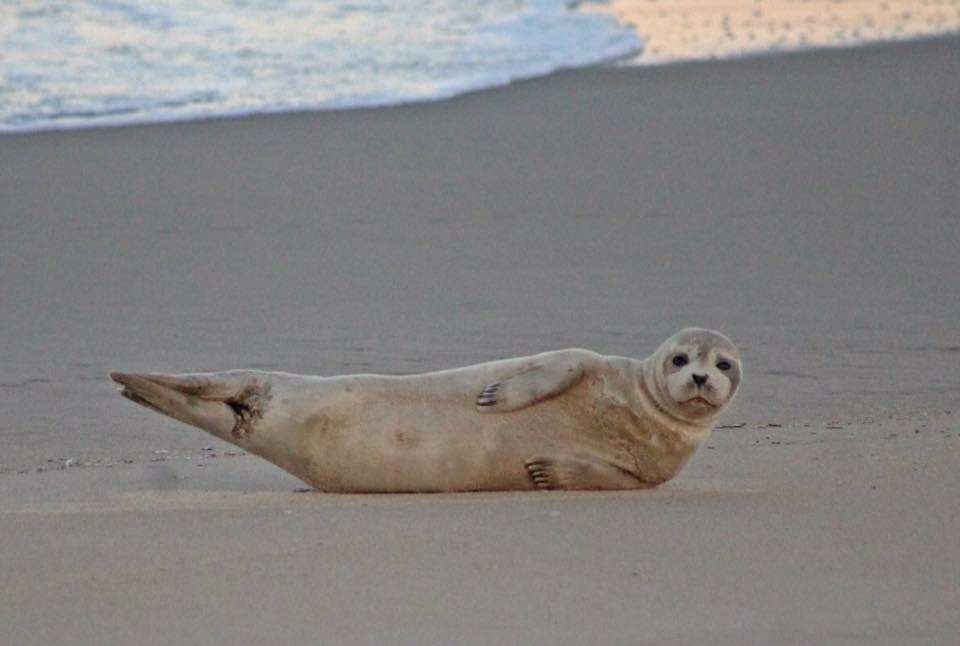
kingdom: Animalia
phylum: Chordata
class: Mammalia
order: Carnivora
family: Phocidae
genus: Phoca
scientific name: Phoca vitulina
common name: Harbor seal
